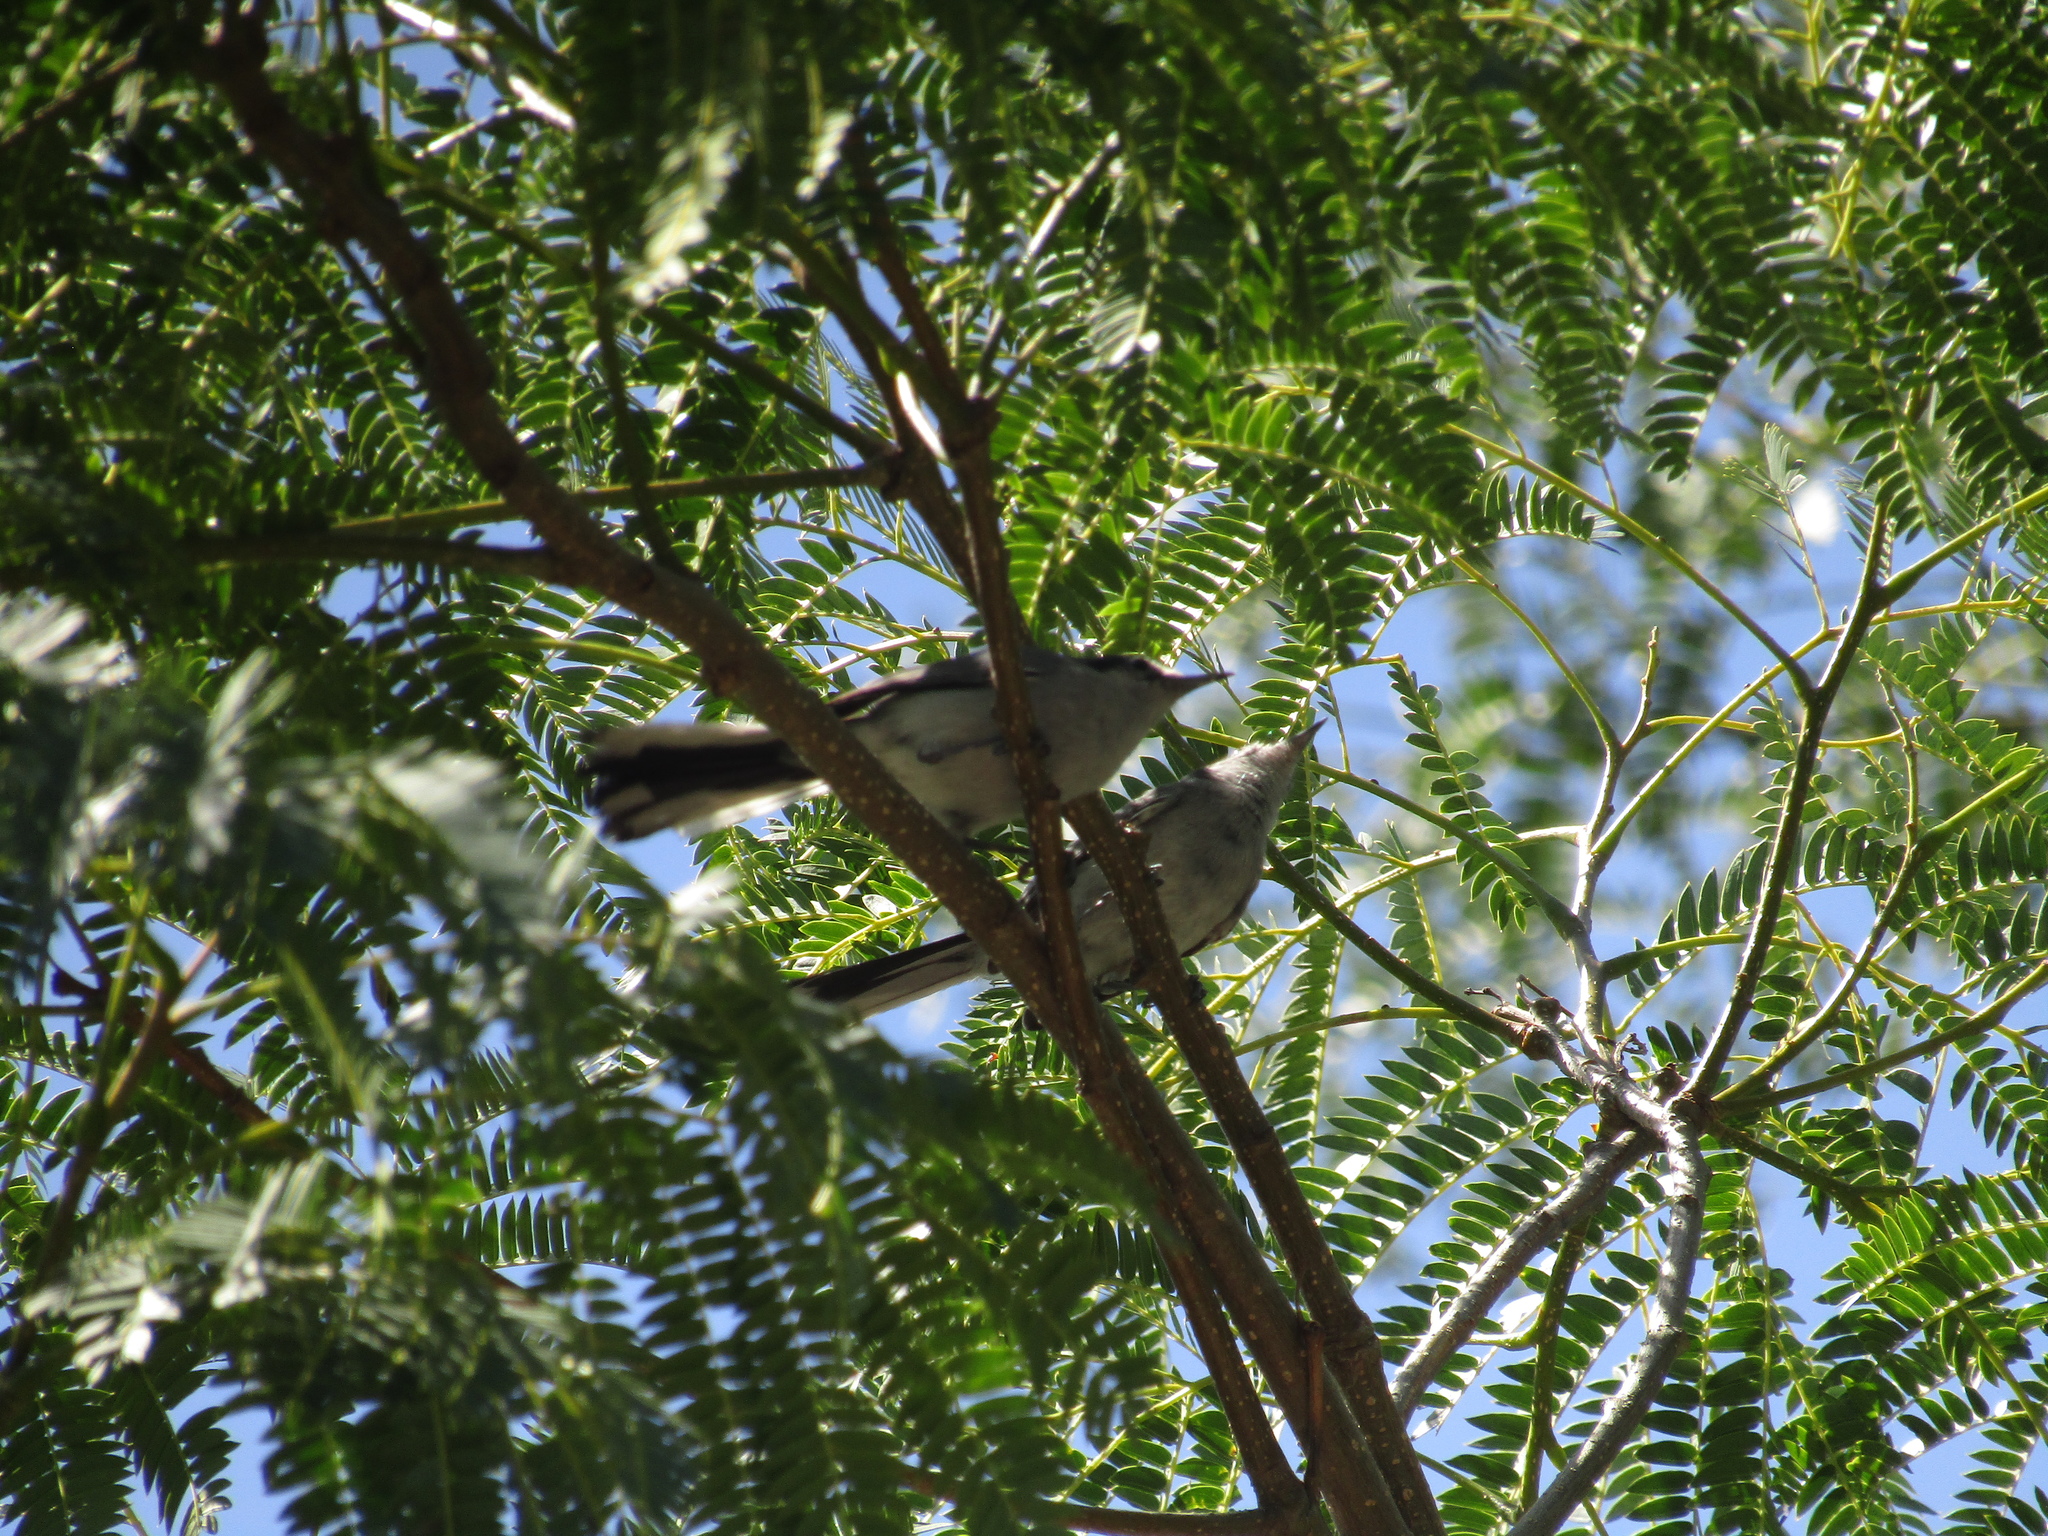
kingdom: Animalia
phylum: Chordata
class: Aves
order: Passeriformes
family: Polioptilidae
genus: Polioptila
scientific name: Polioptila dumicola
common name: Masked gnatcatcher
